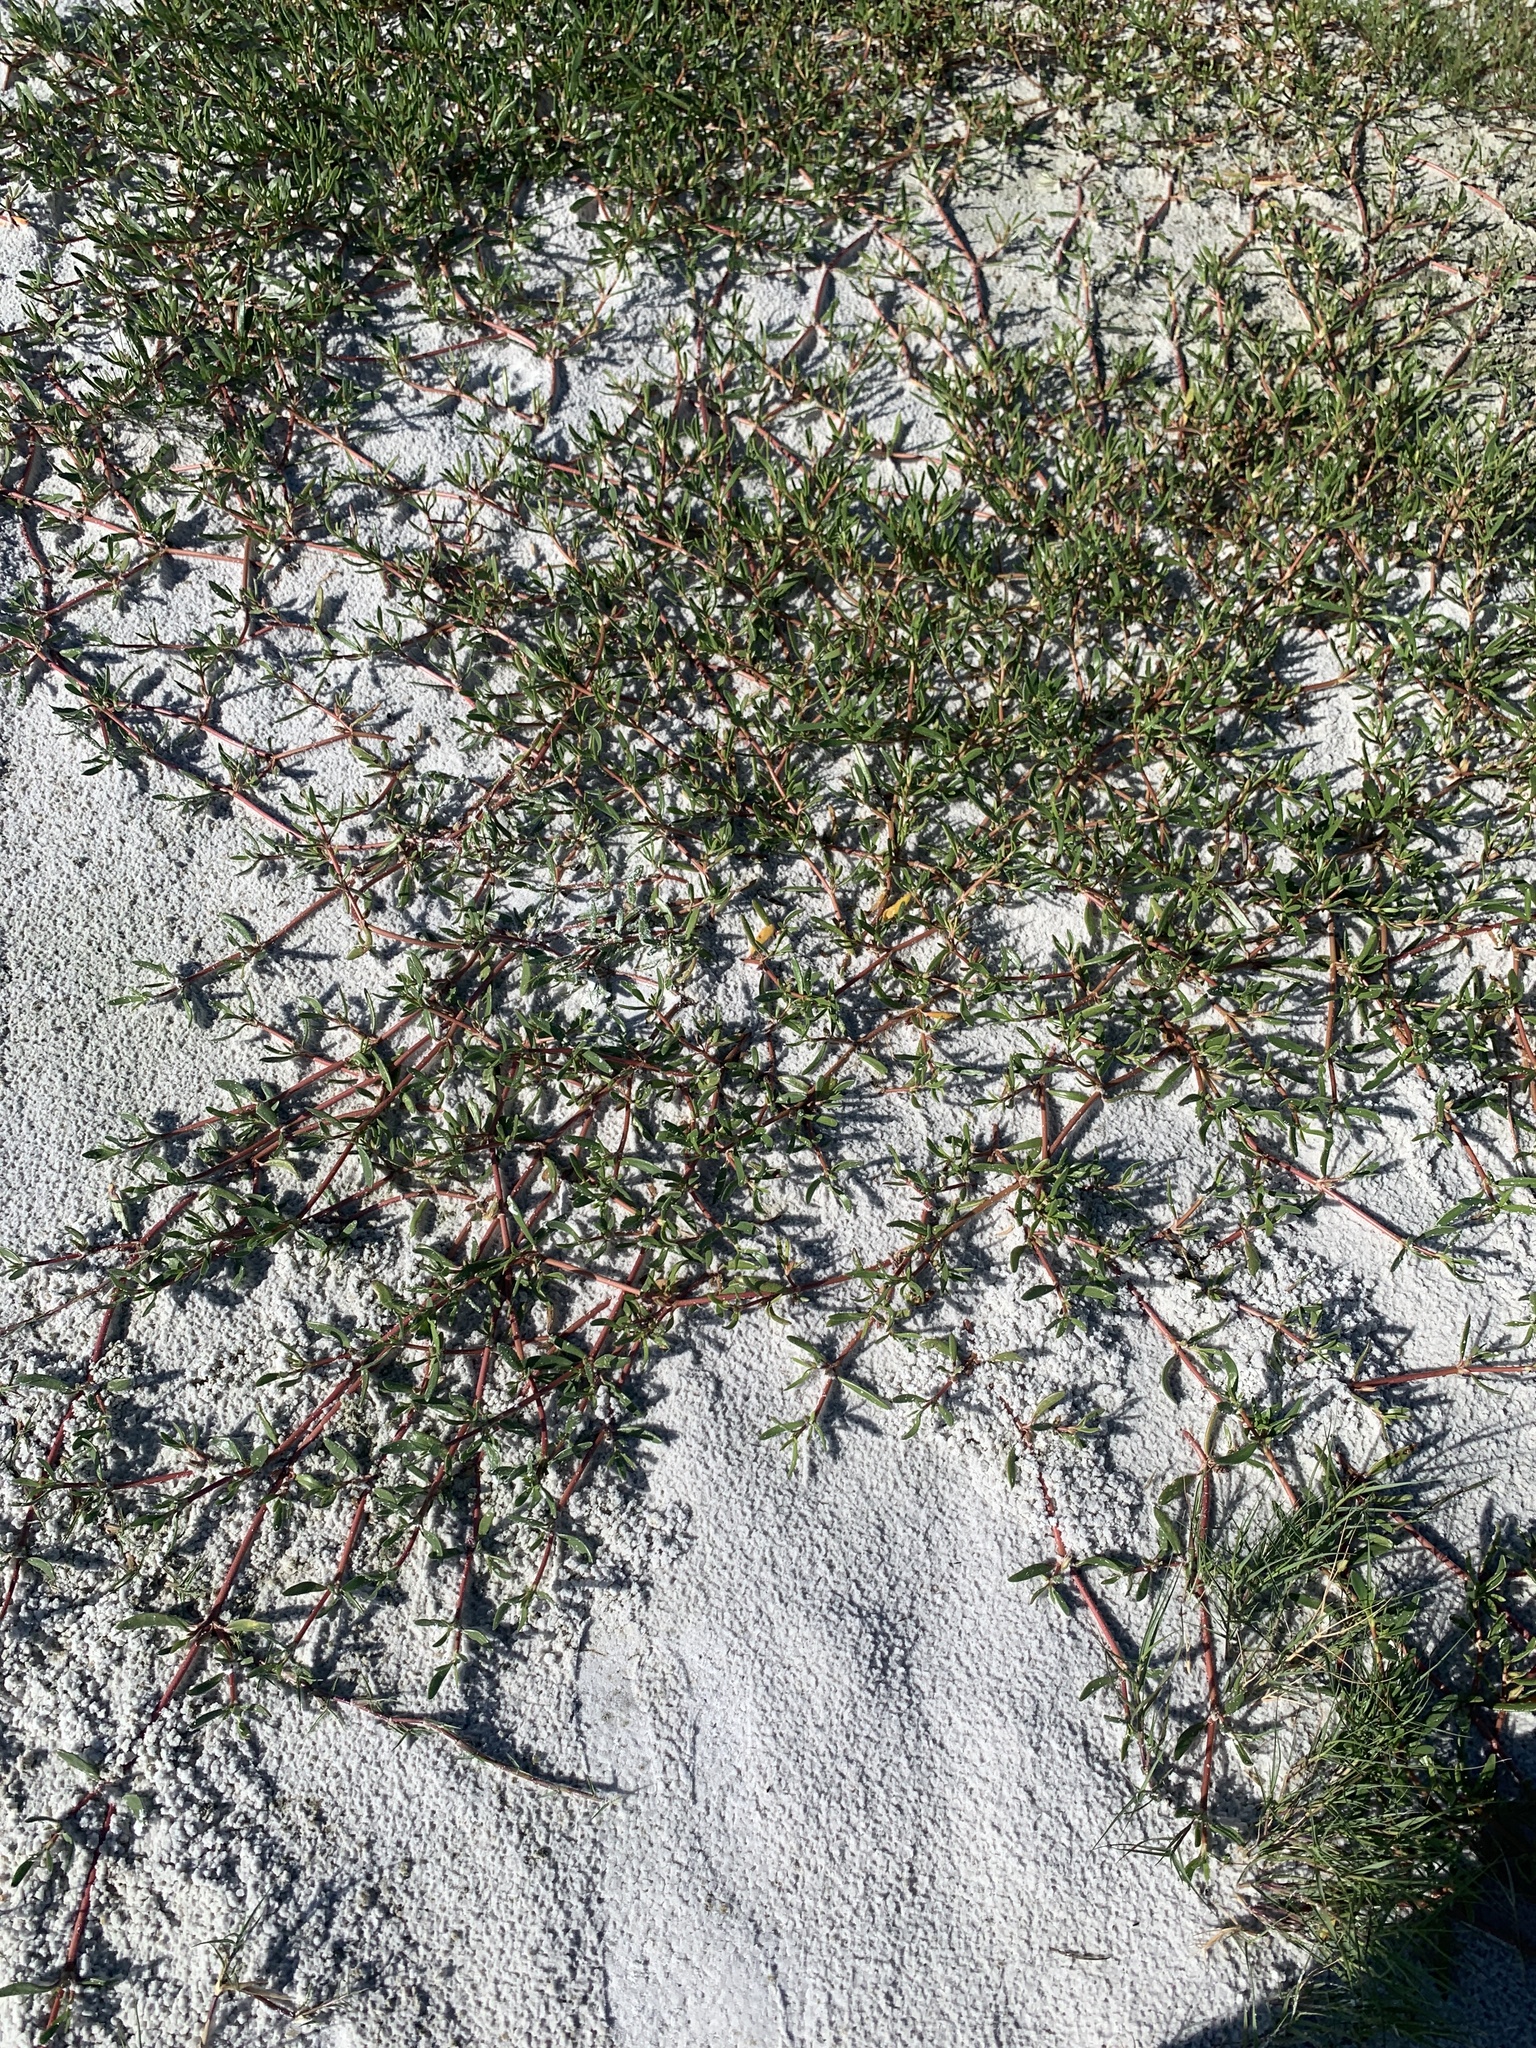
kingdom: Plantae
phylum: Tracheophyta
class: Magnoliopsida
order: Caryophyllales
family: Aizoaceae
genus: Sesuvium
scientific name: Sesuvium portulacastrum
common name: Sea-purslane
